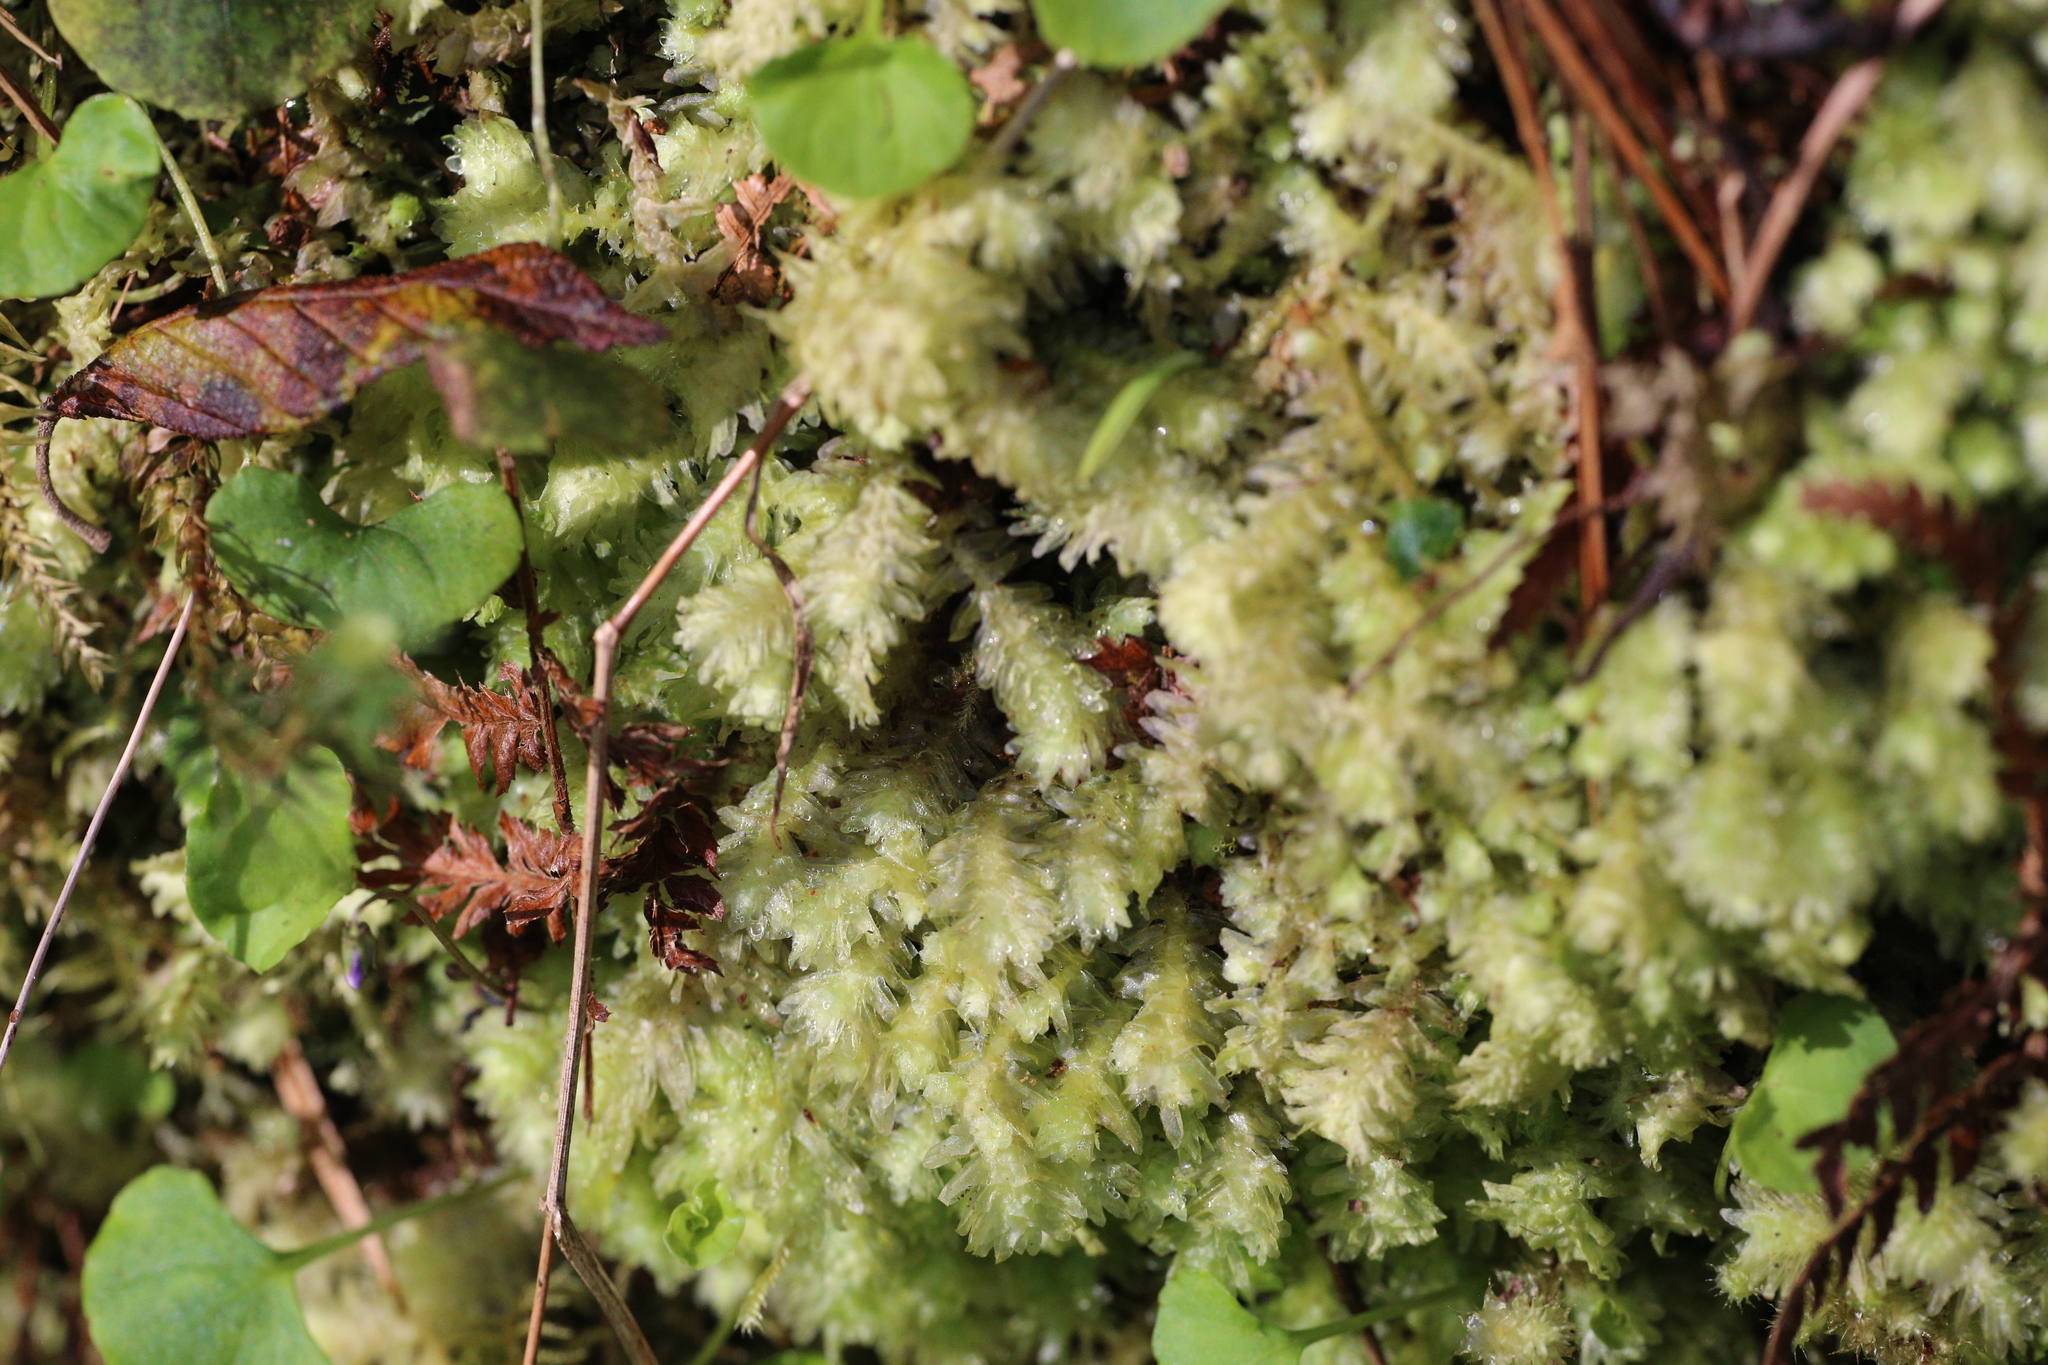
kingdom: Plantae
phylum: Marchantiophyta
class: Jungermanniopsida
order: Jungermanniales
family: Schistochilaceae
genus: Schistochila
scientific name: Schistochila lehmanniana
